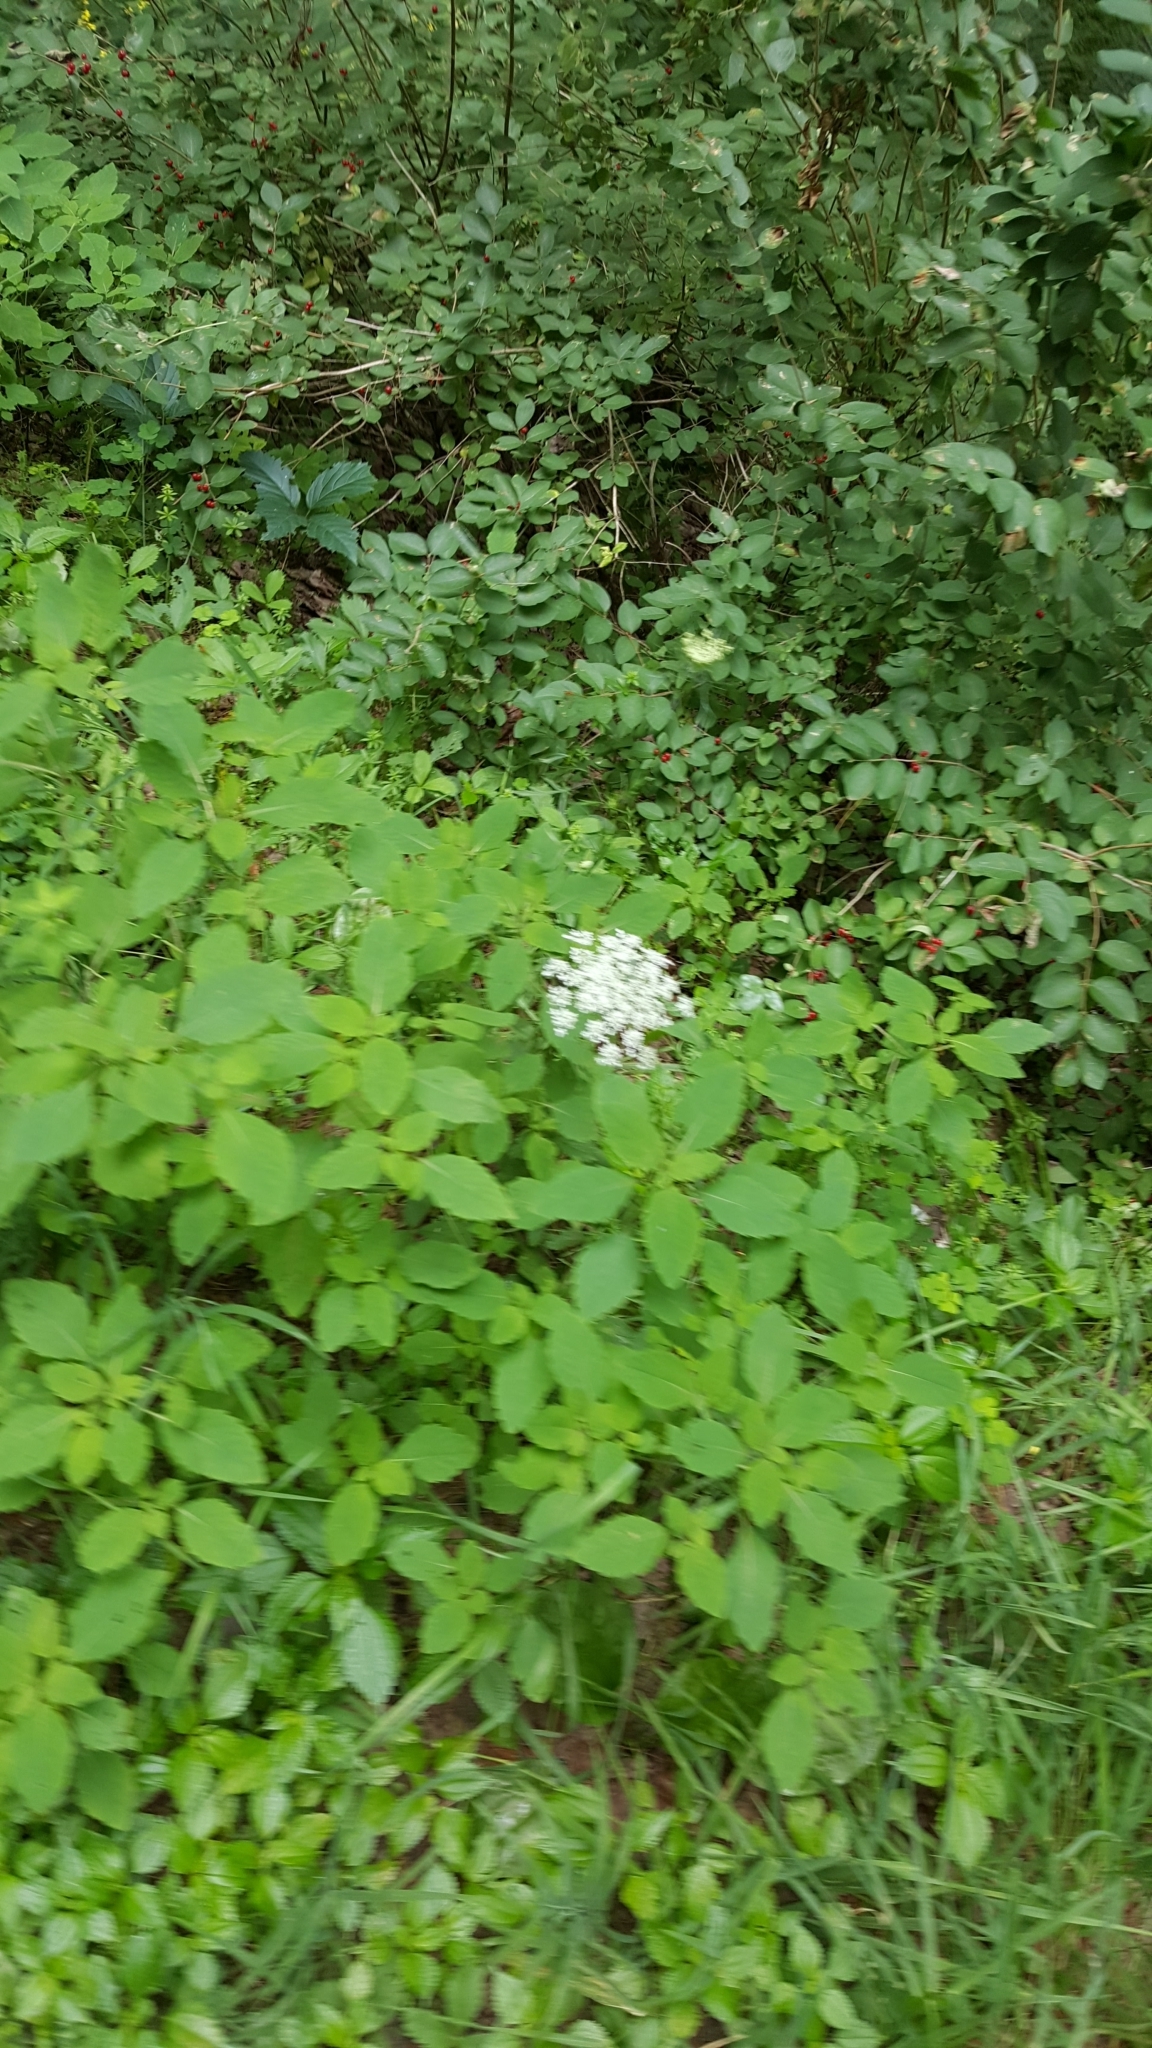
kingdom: Plantae
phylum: Tracheophyta
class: Magnoliopsida
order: Apiales
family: Apiaceae
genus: Daucus
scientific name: Daucus carota
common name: Wild carrot
